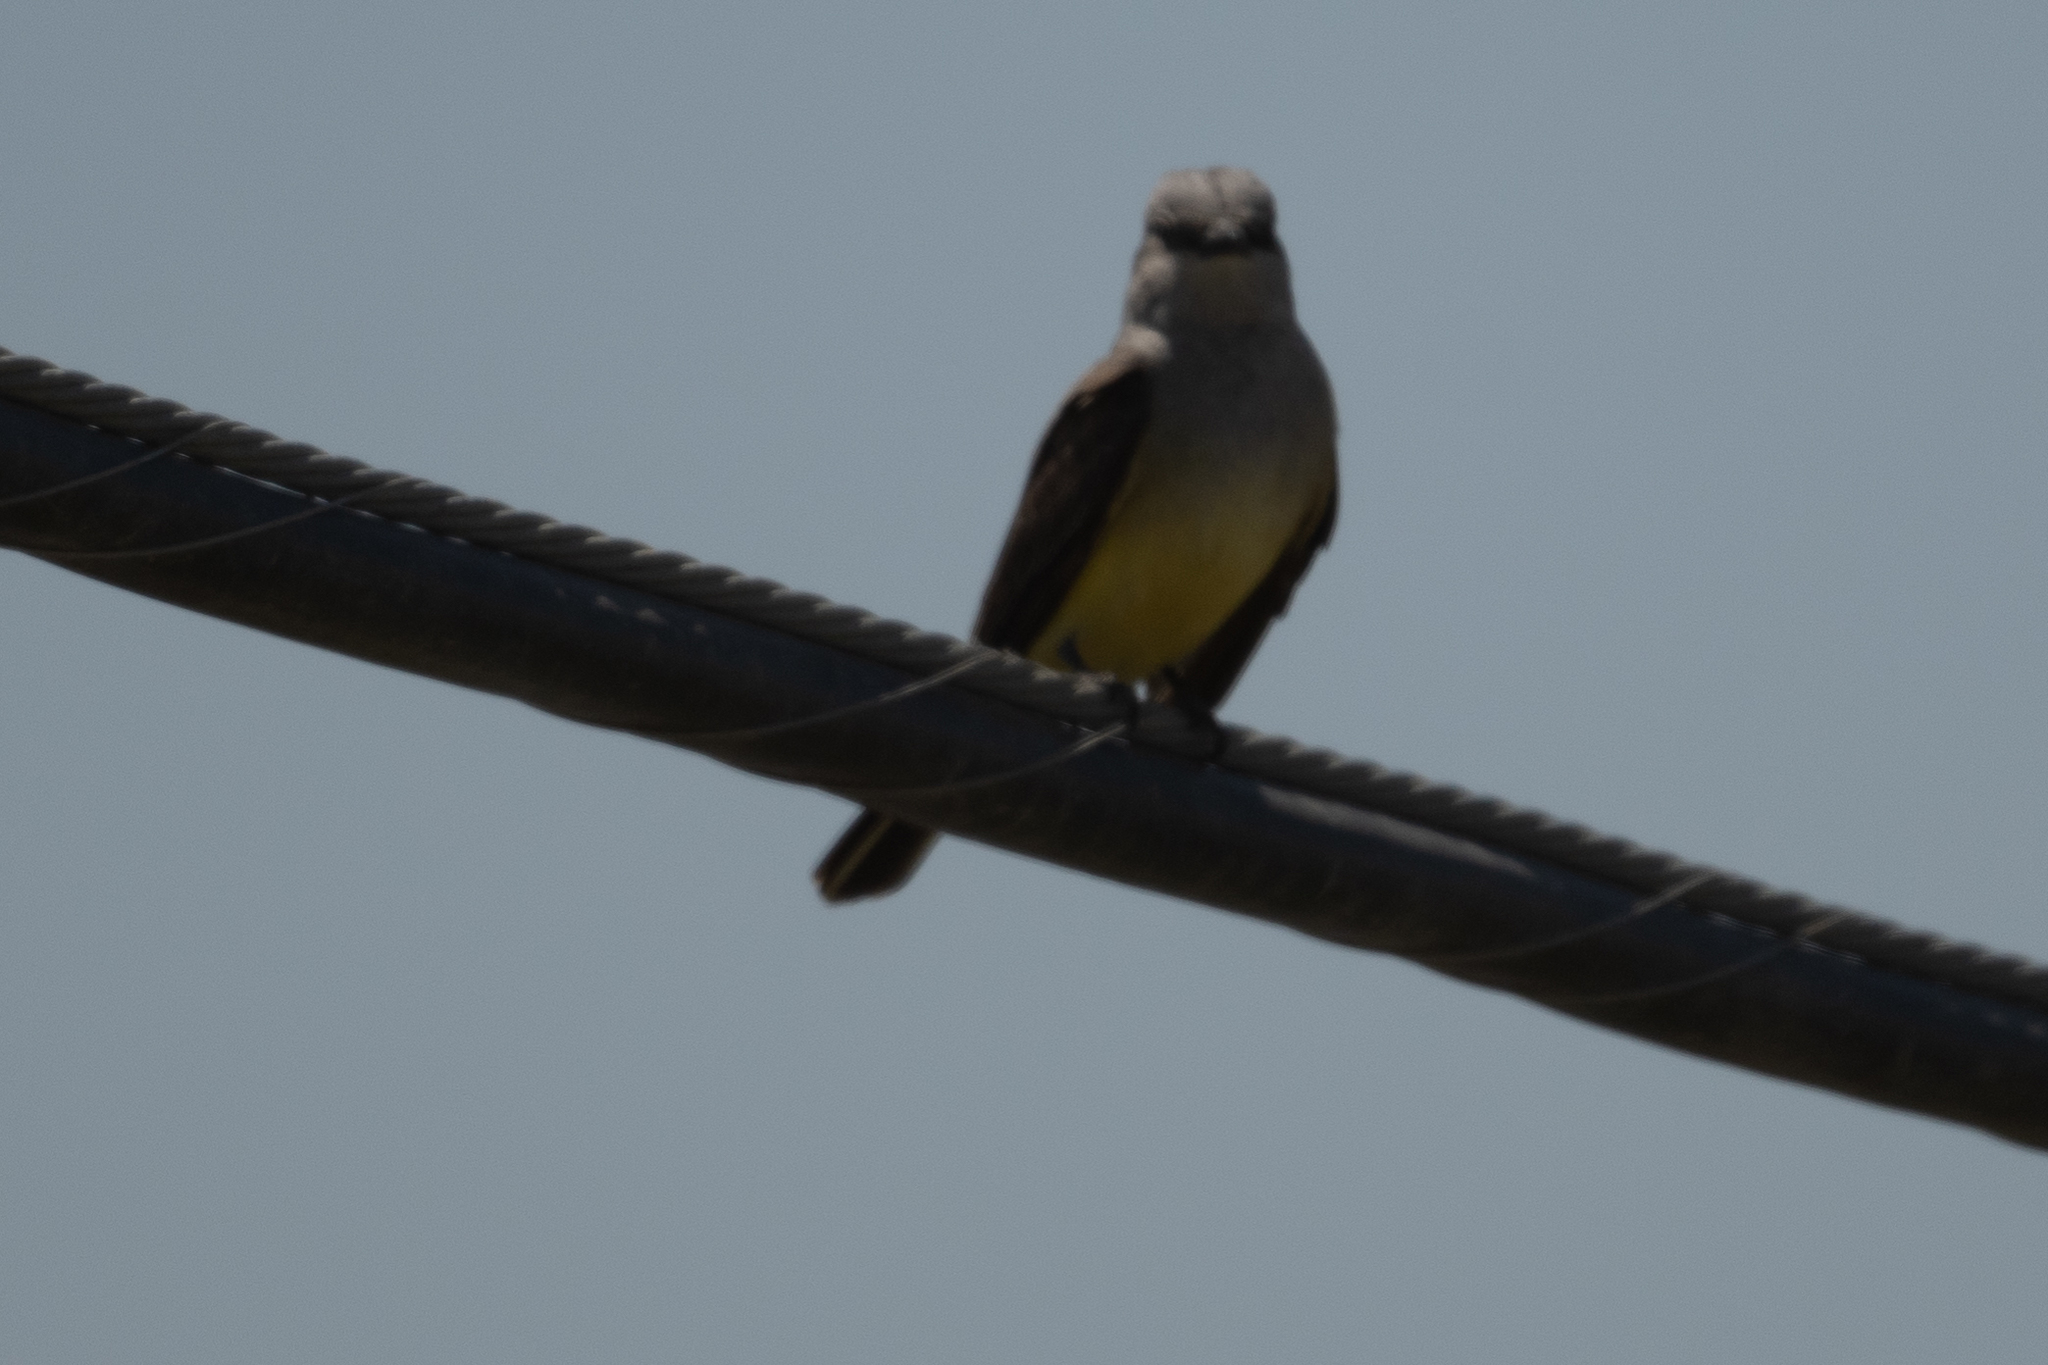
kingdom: Animalia
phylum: Chordata
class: Aves
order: Passeriformes
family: Tyrannidae
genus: Tyrannus
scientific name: Tyrannus verticalis
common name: Western kingbird
